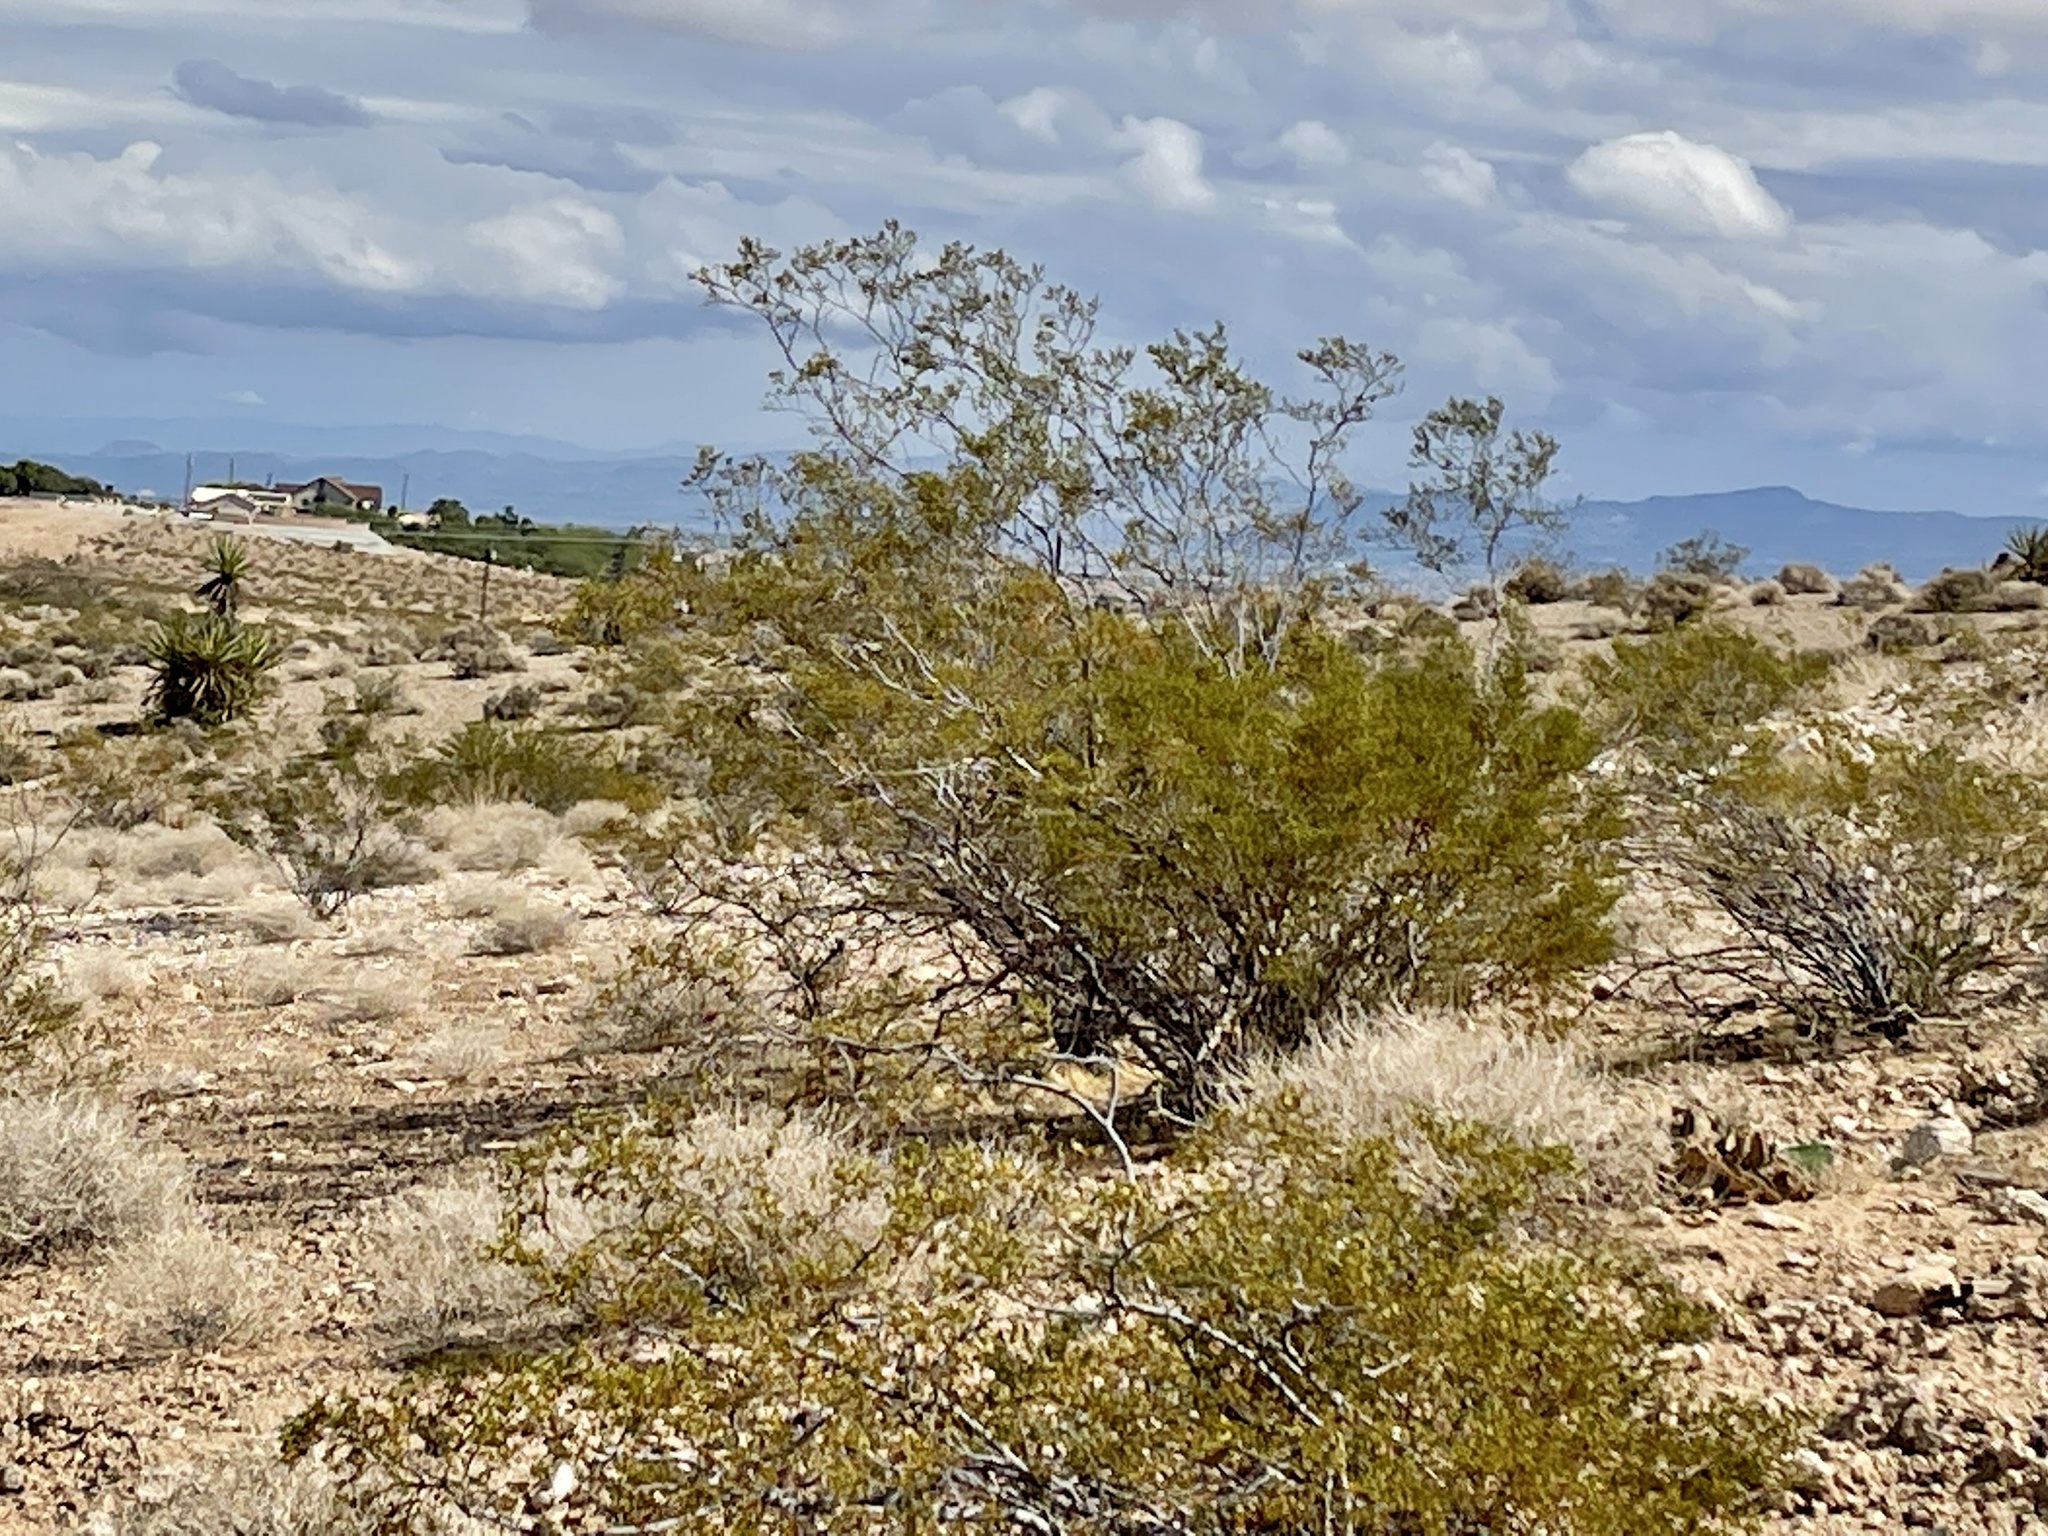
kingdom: Plantae
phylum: Tracheophyta
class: Magnoliopsida
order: Zygophyllales
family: Zygophyllaceae
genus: Larrea
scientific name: Larrea tridentata
